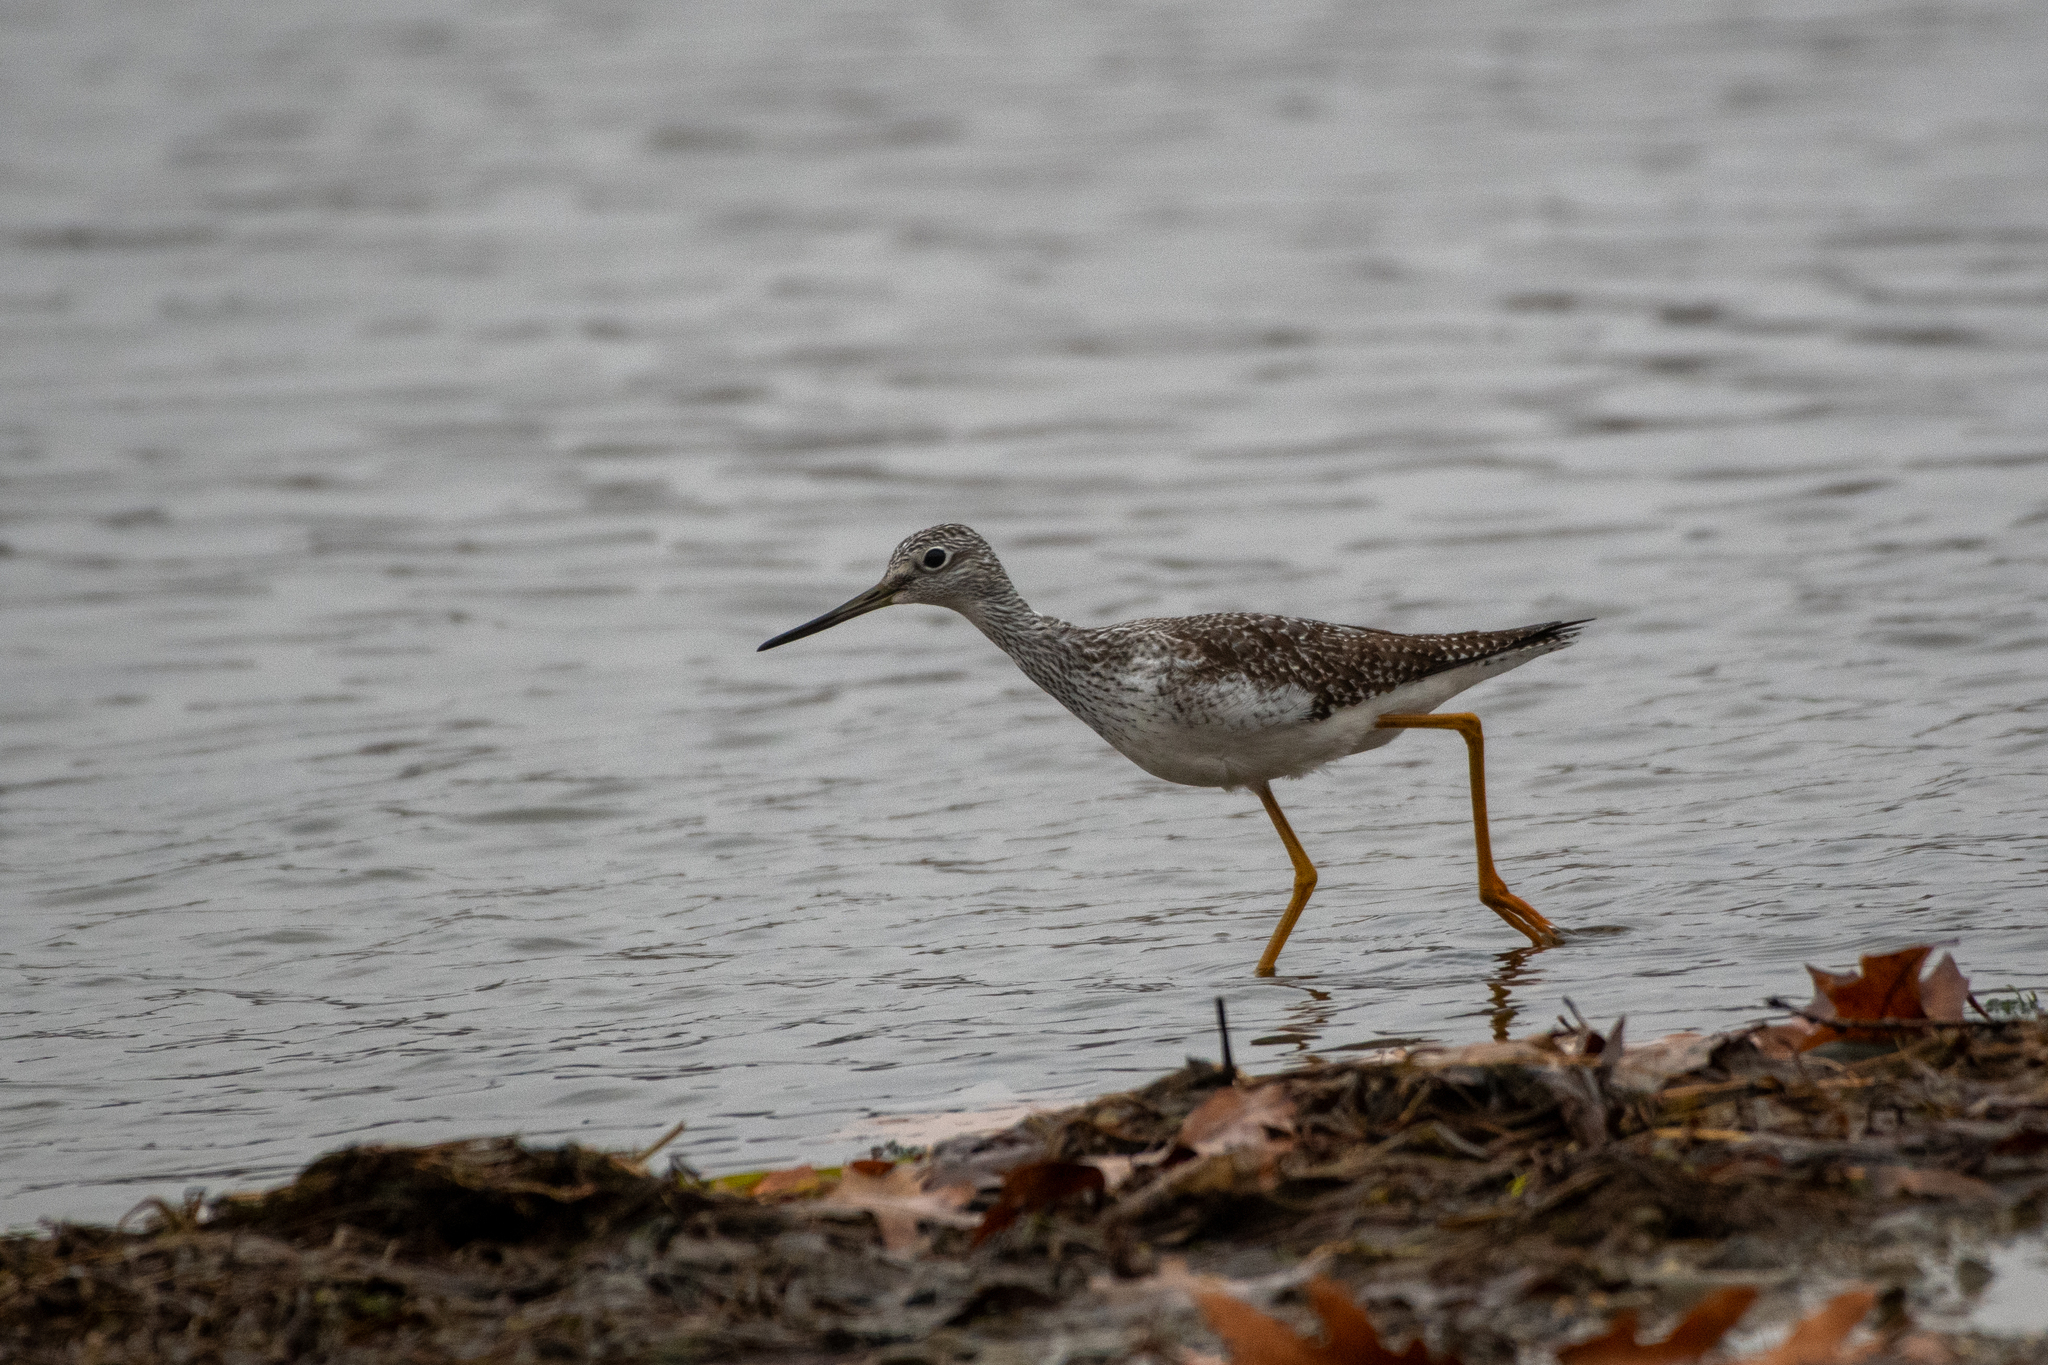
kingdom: Animalia
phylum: Chordata
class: Aves
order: Charadriiformes
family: Scolopacidae
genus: Tringa
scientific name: Tringa melanoleuca
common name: Greater yellowlegs
